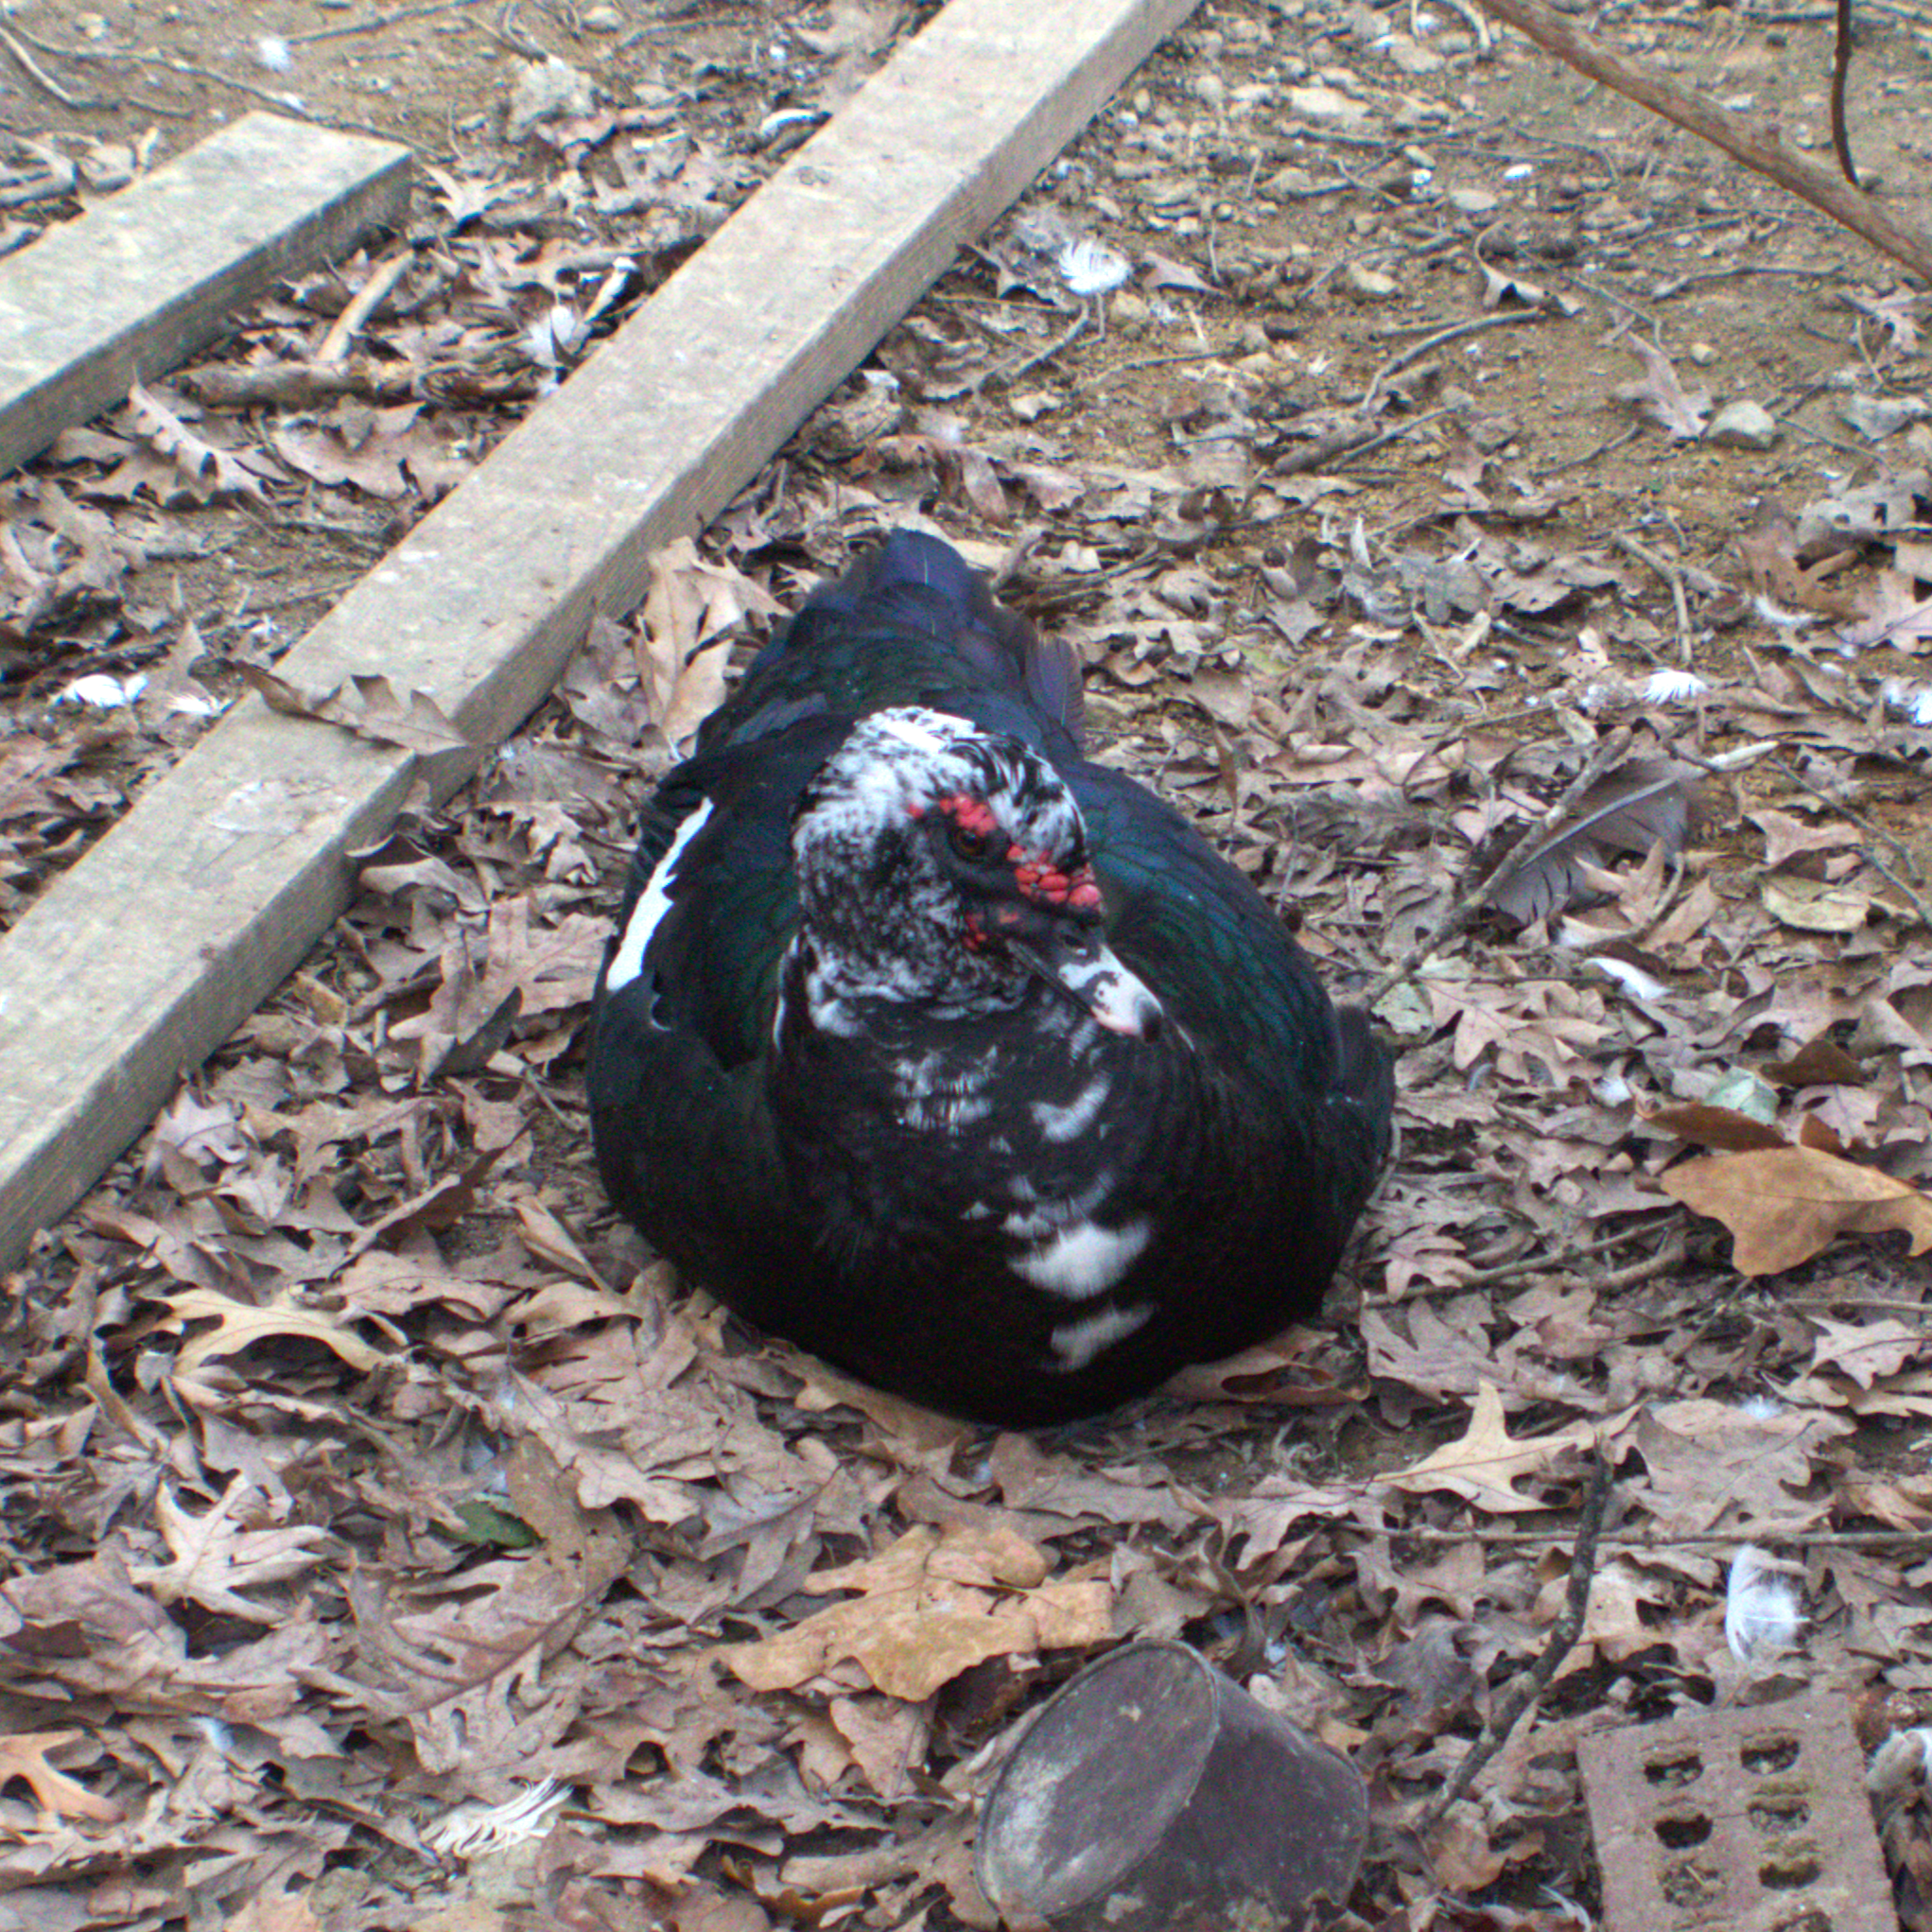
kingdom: Animalia
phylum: Chordata
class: Aves
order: Anseriformes
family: Anatidae
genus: Cairina
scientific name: Cairina moschata
